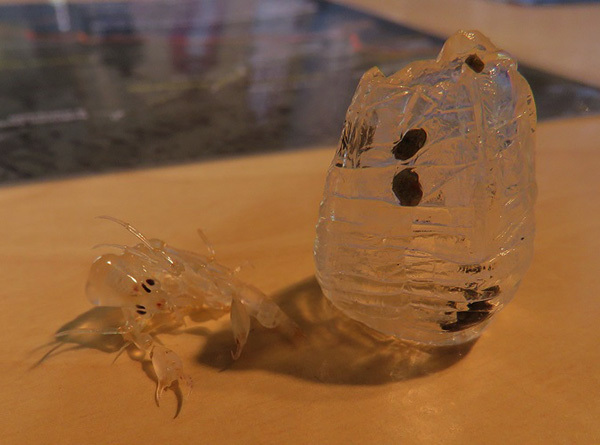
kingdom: Animalia
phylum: Arthropoda
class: Malacostraca
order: Amphipoda
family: Phronimidae
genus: Phronima
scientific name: Phronima sedentaria
